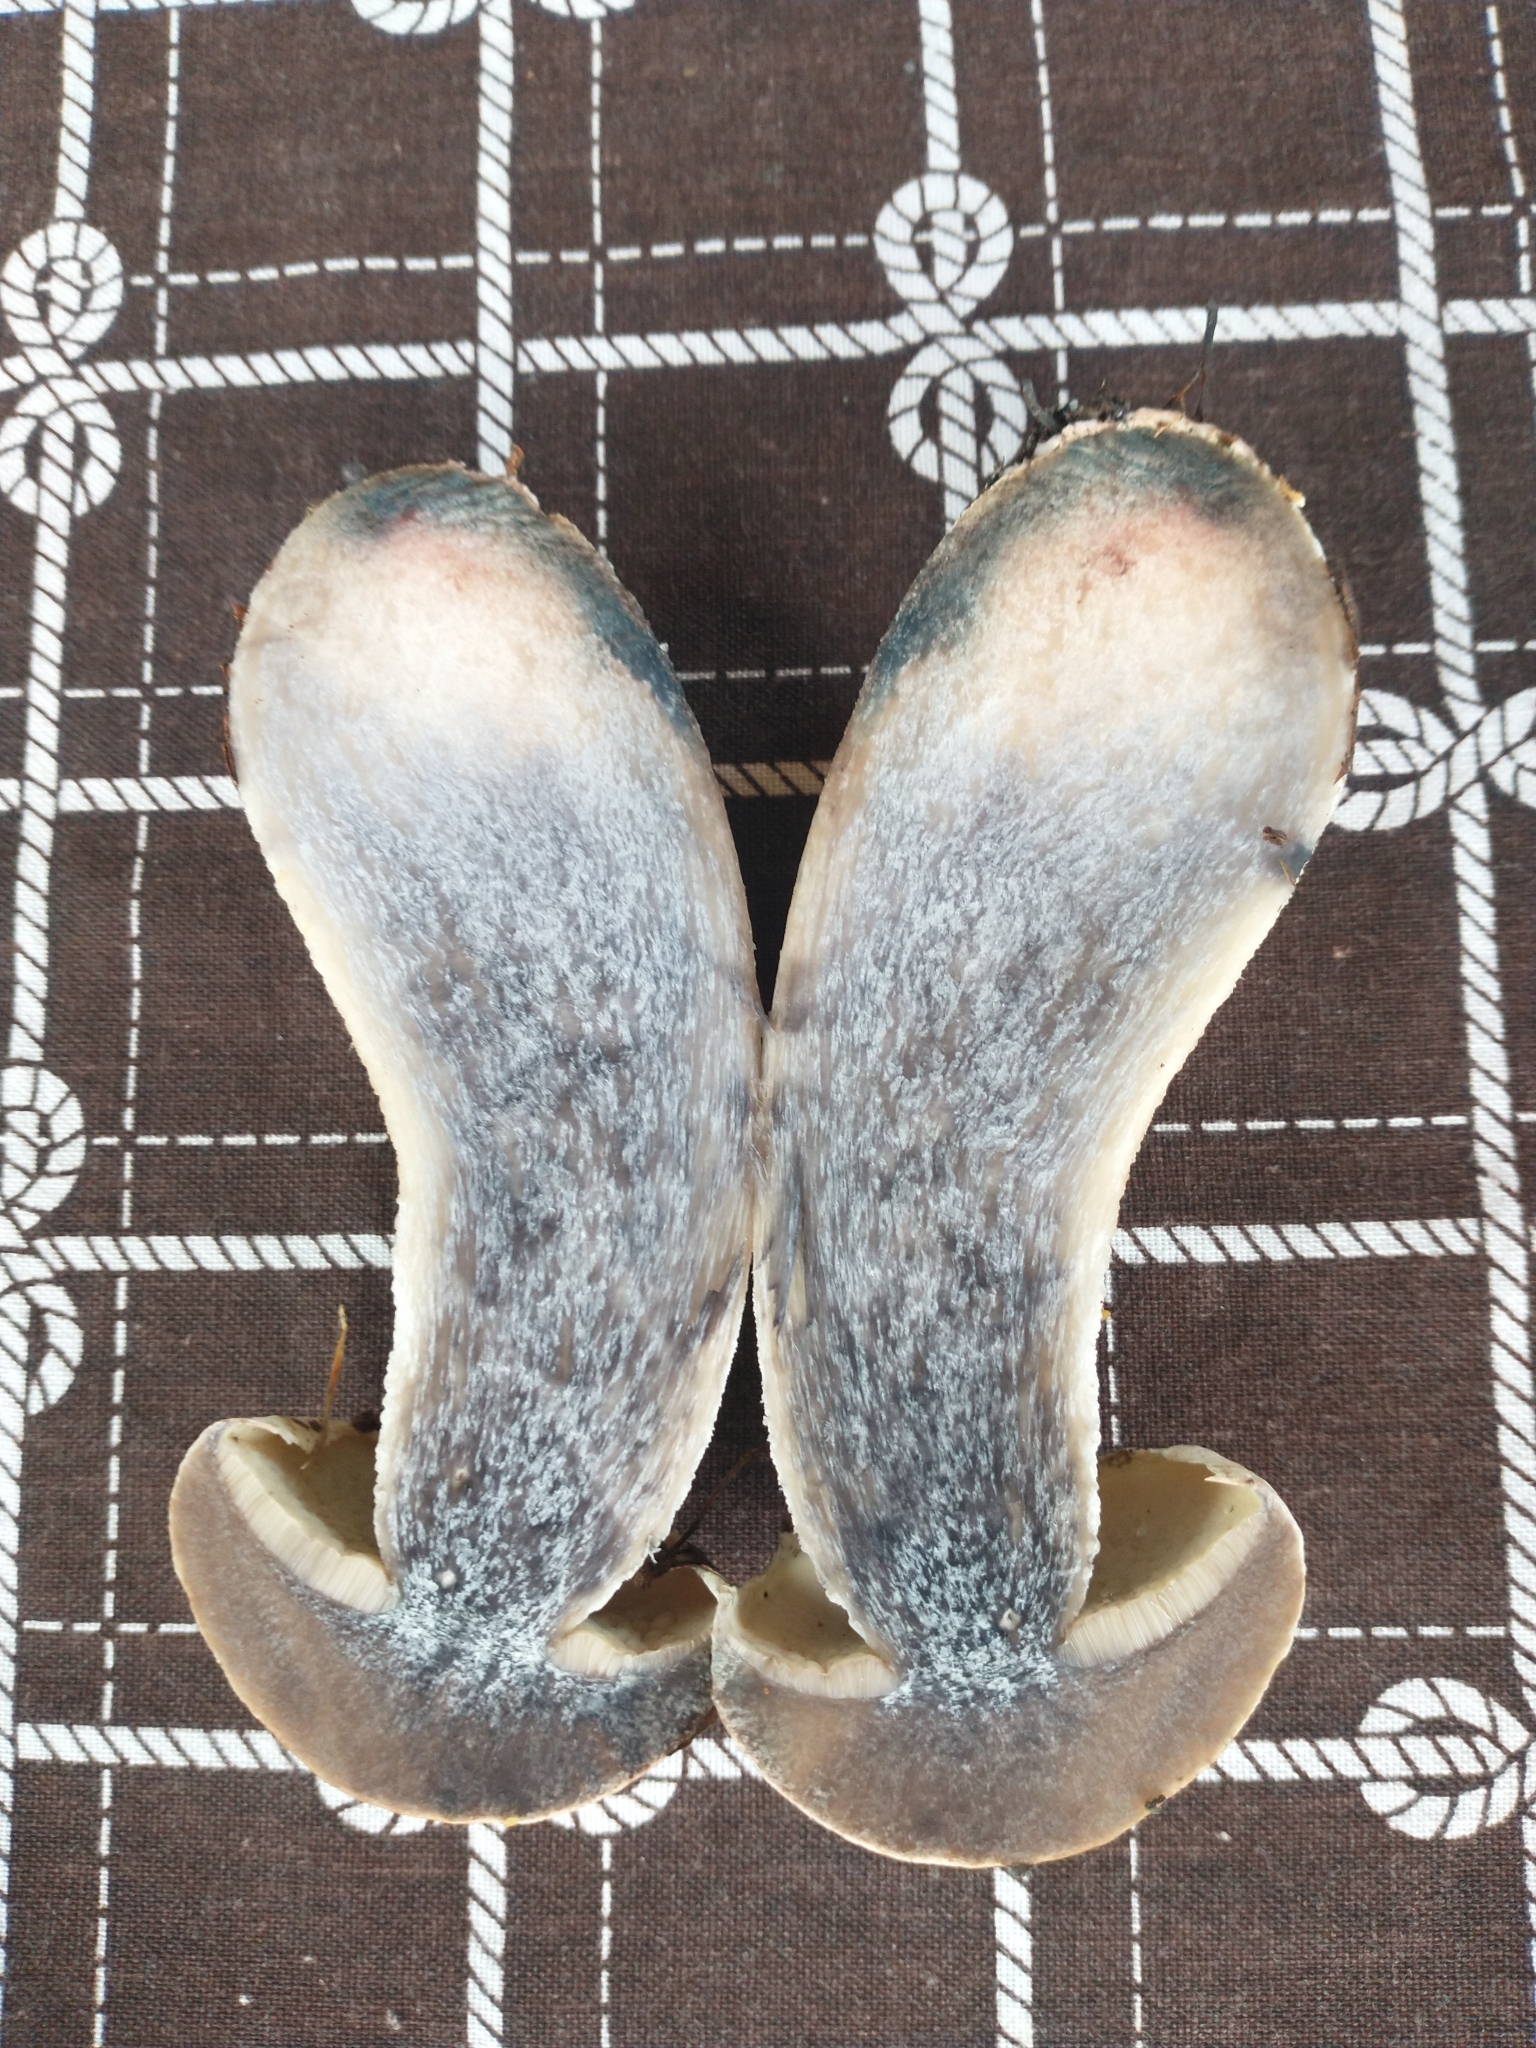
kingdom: Fungi
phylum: Basidiomycota
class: Agaricomycetes
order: Boletales
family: Boletaceae
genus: Leccinum
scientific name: Leccinum versipelle
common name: Orange birch bolete
